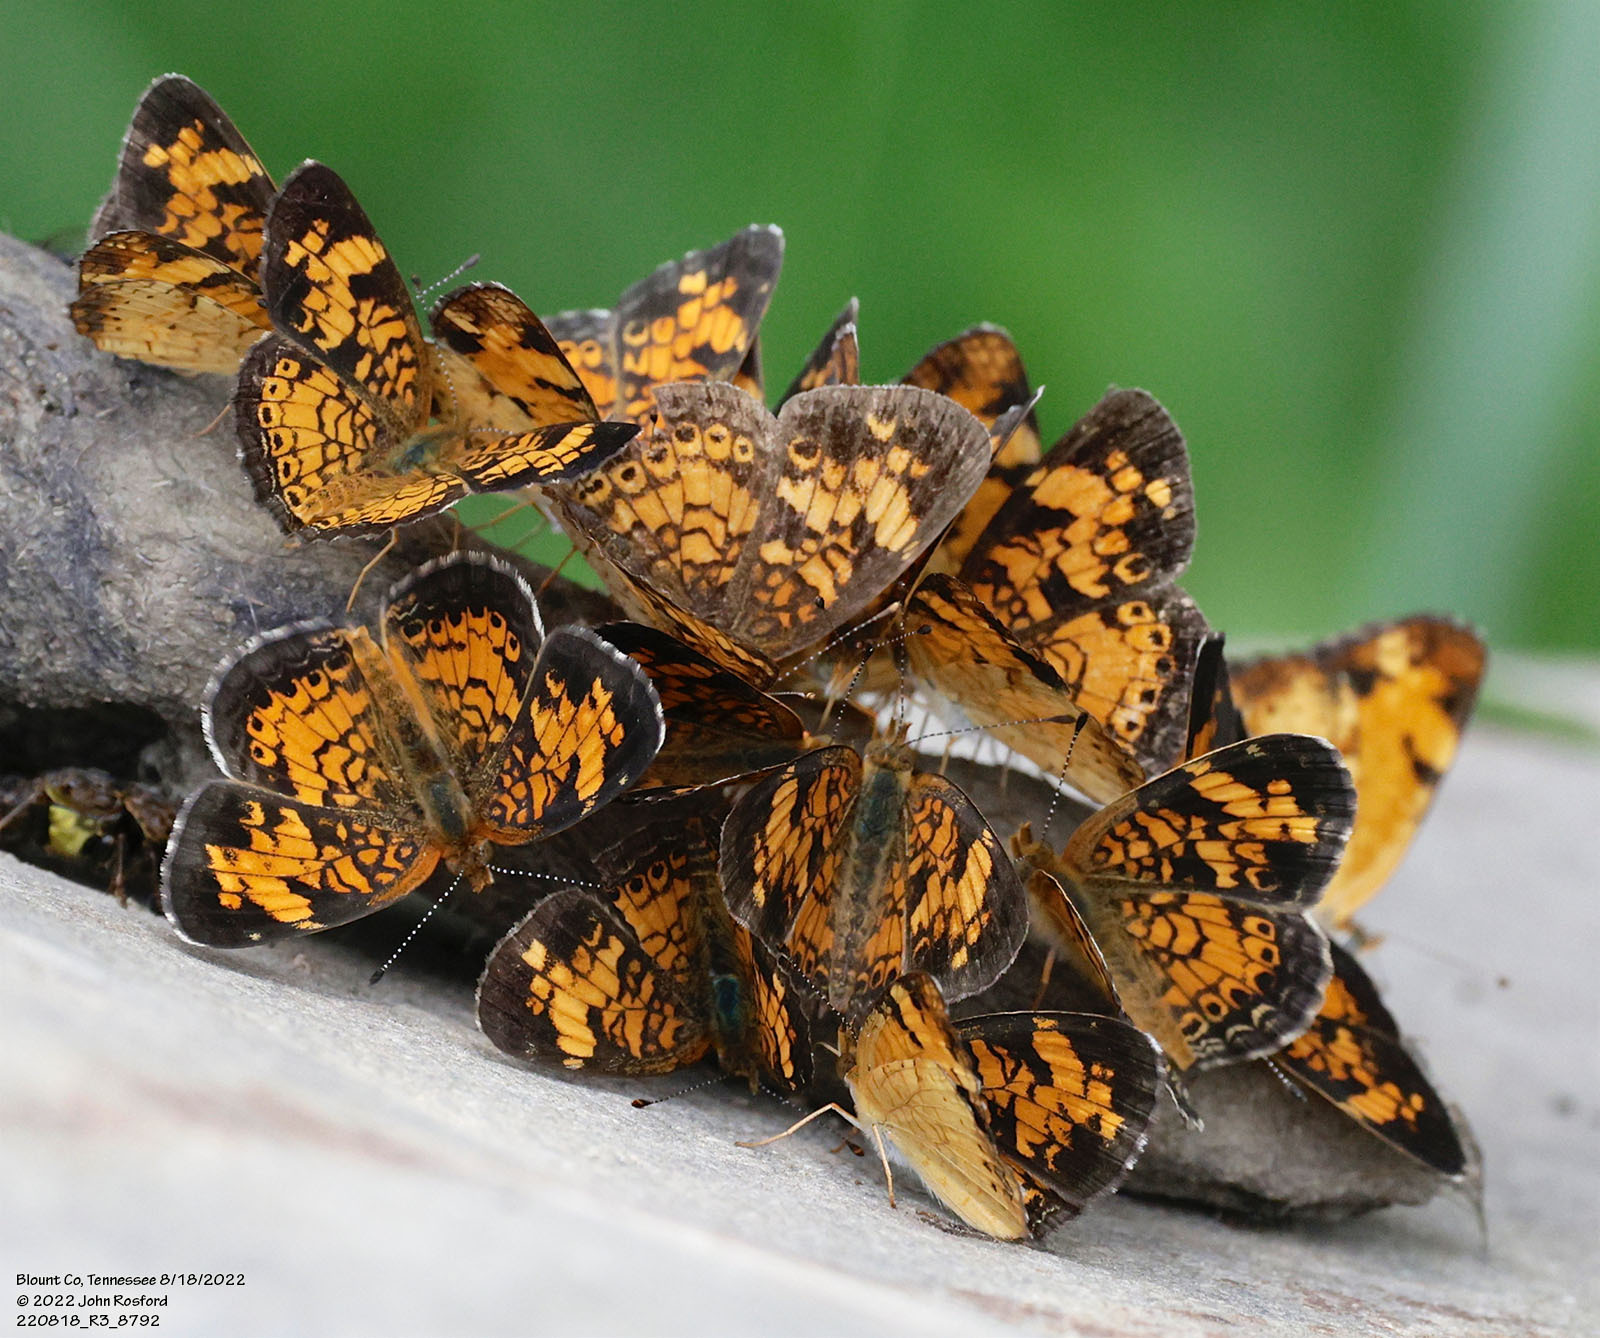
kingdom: Animalia
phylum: Arthropoda
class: Insecta
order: Lepidoptera
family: Nymphalidae
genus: Phyciodes
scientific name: Phyciodes tharos
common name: Pearl crescent
